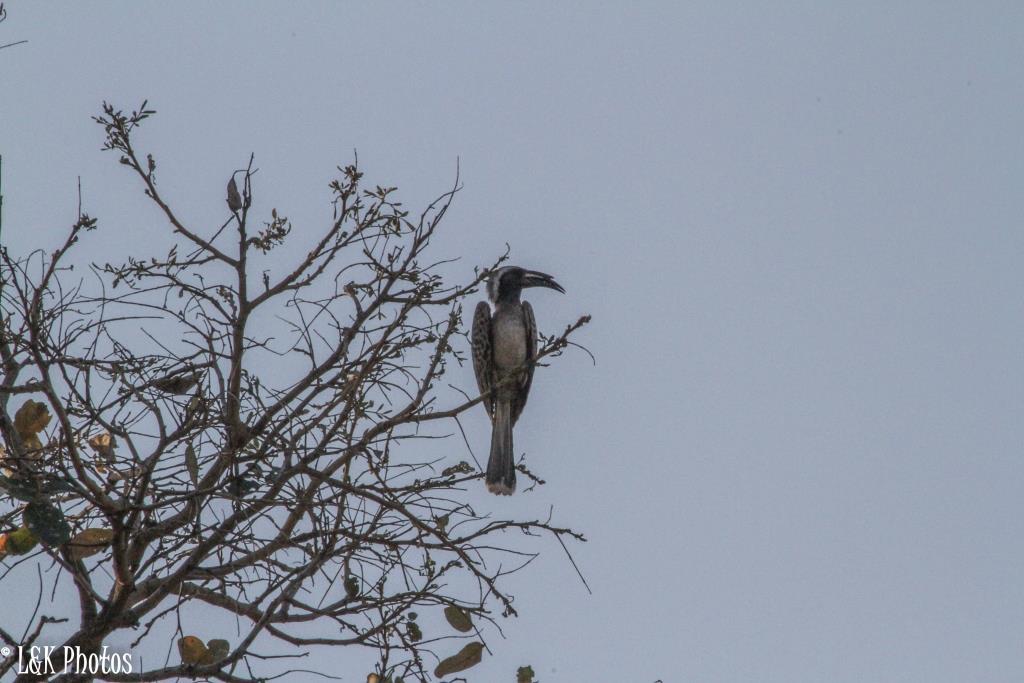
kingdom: Animalia
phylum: Chordata
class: Aves
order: Bucerotiformes
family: Bucerotidae
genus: Lophoceros
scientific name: Lophoceros nasutus
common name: African grey hornbill
